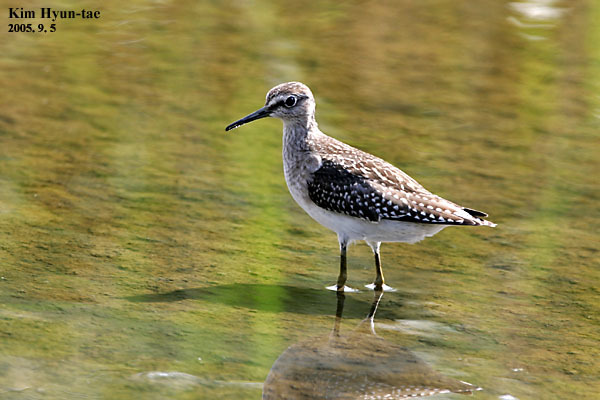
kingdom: Animalia
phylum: Chordata
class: Aves
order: Charadriiformes
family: Scolopacidae
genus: Tringa
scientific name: Tringa glareola
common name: Wood sandpiper
